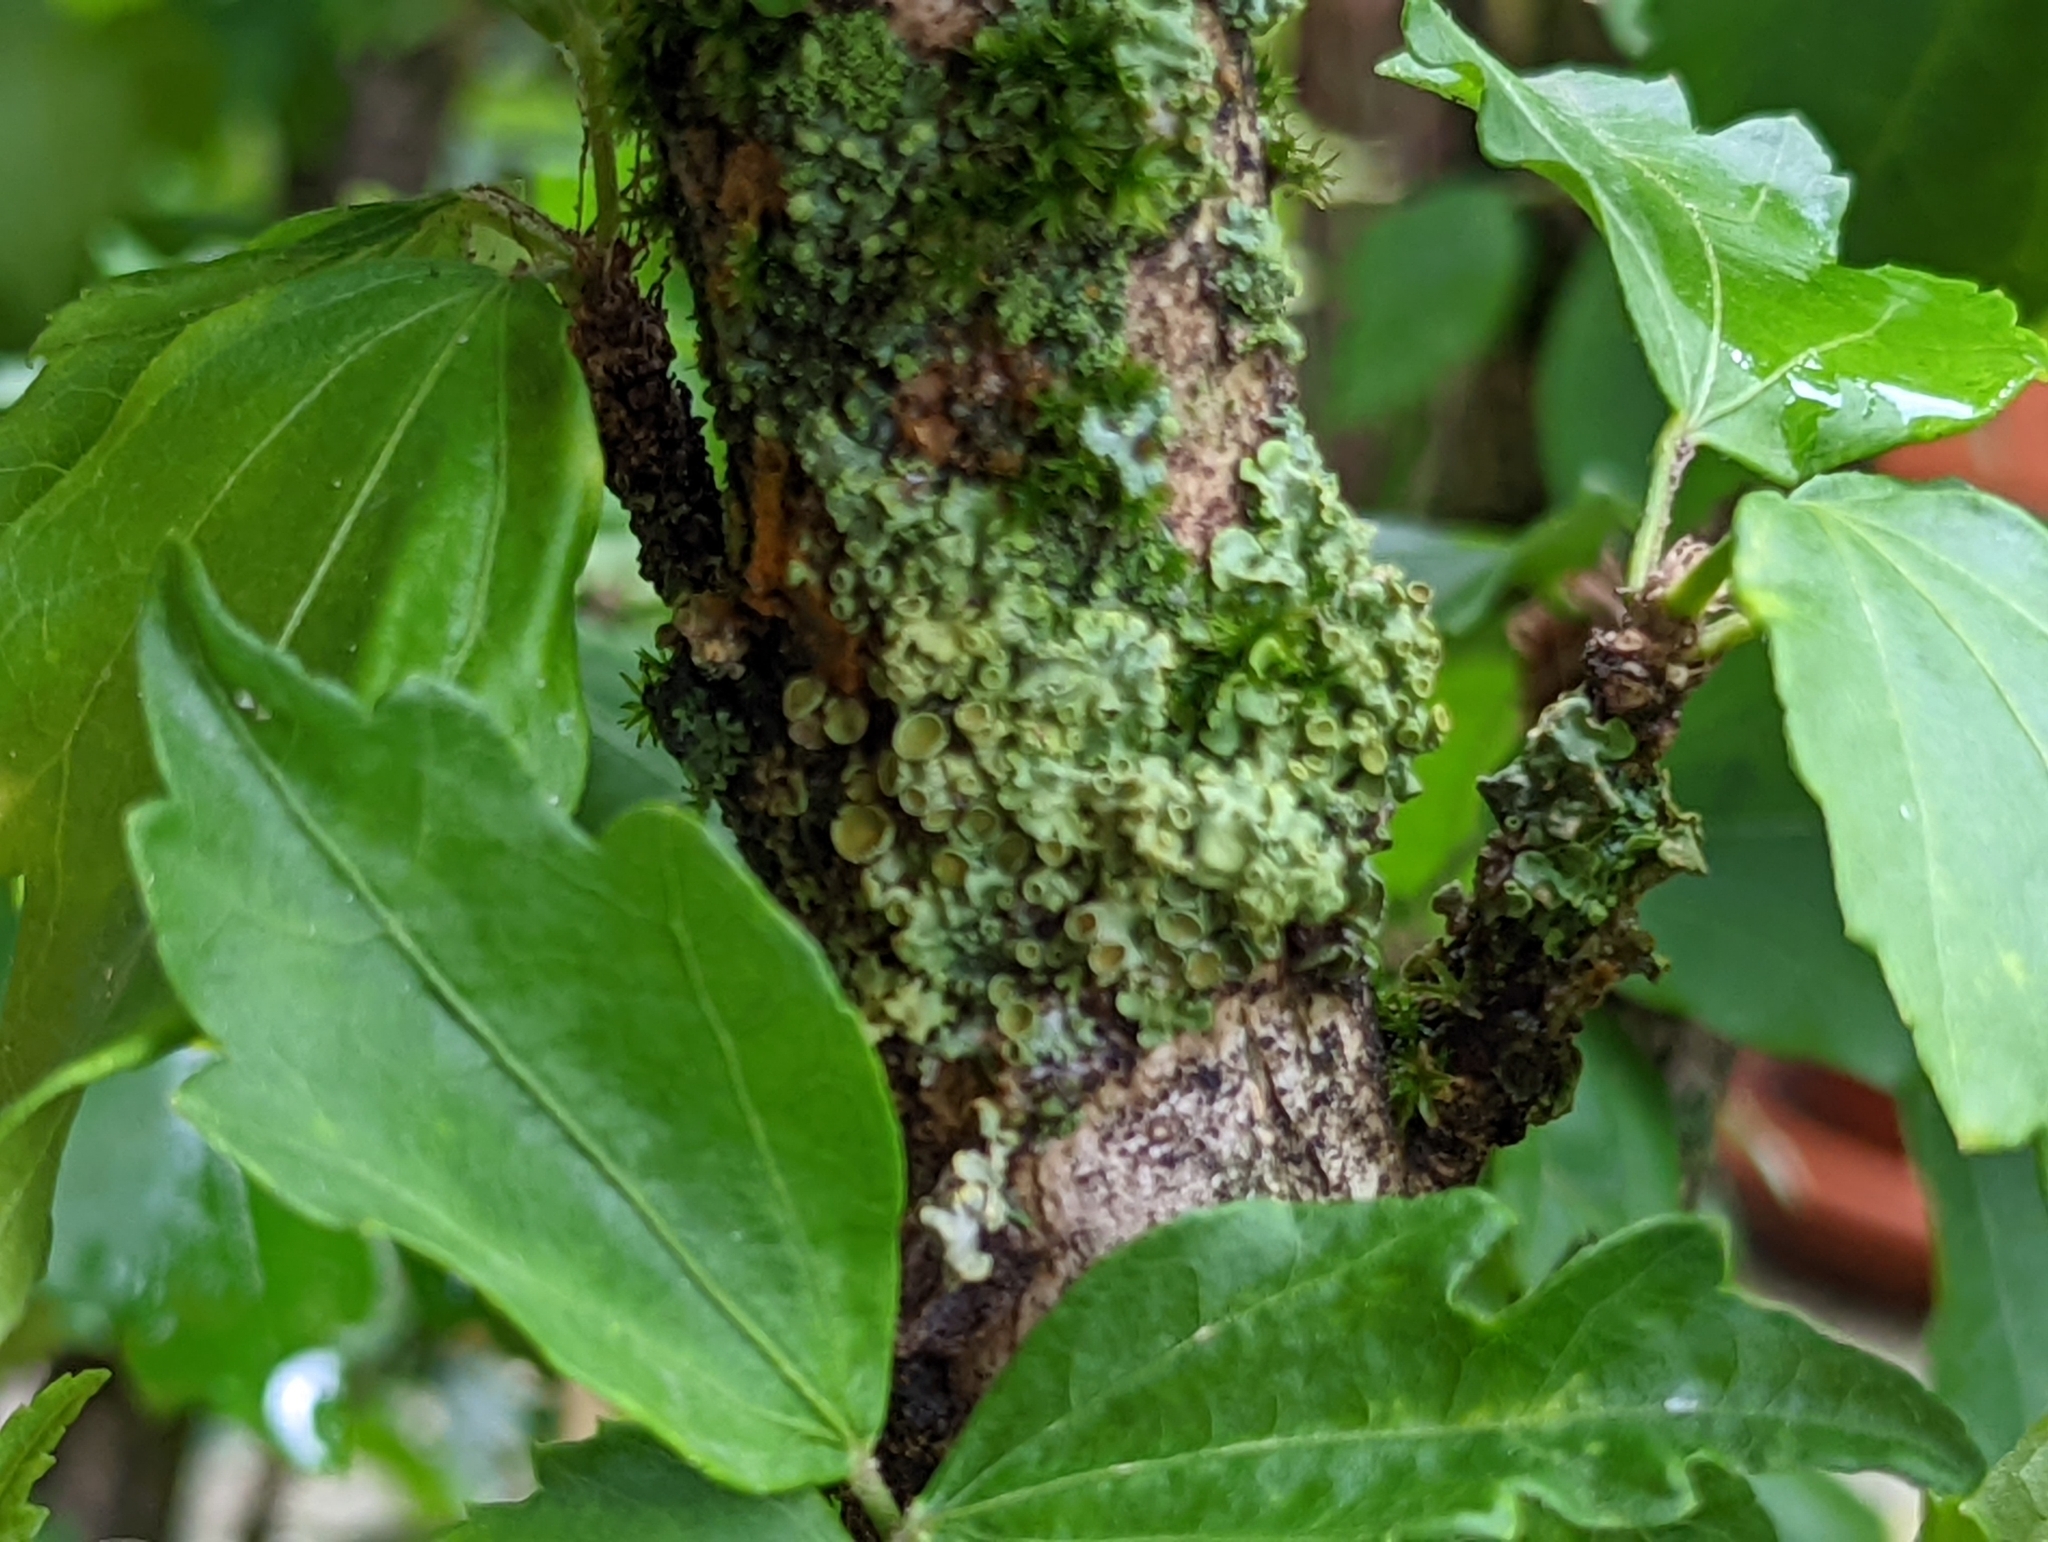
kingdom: Fungi
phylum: Ascomycota
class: Lecanoromycetes
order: Teloschistales
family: Teloschistaceae
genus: Xanthoria
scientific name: Xanthoria parietina
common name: Common orange lichen
